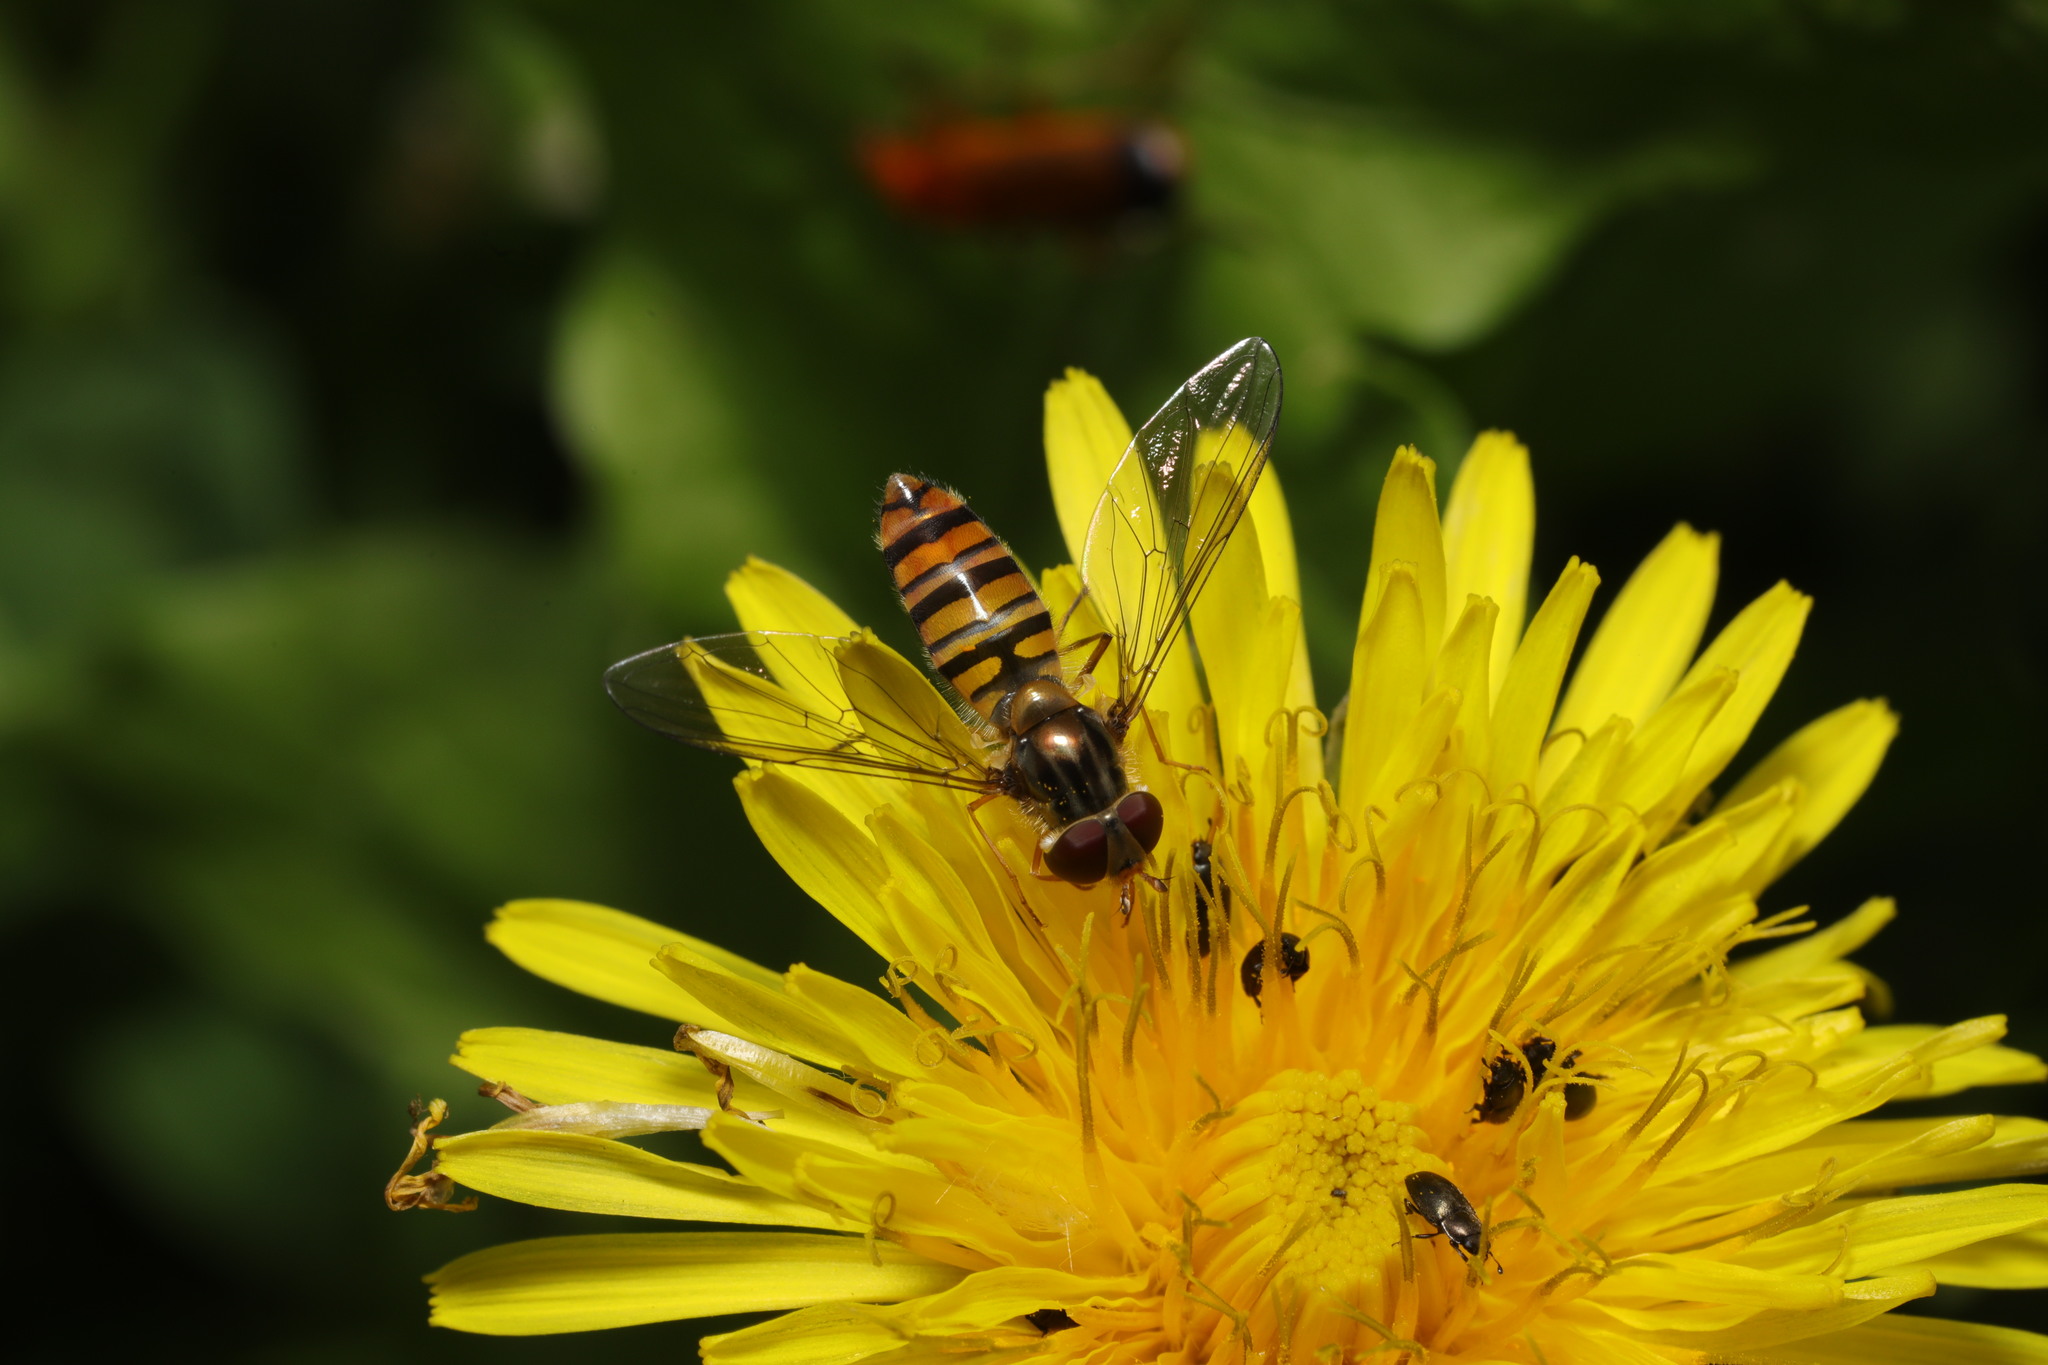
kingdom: Animalia
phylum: Arthropoda
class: Insecta
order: Diptera
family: Syrphidae
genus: Episyrphus
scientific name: Episyrphus balteatus
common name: Marmalade hoverfly
